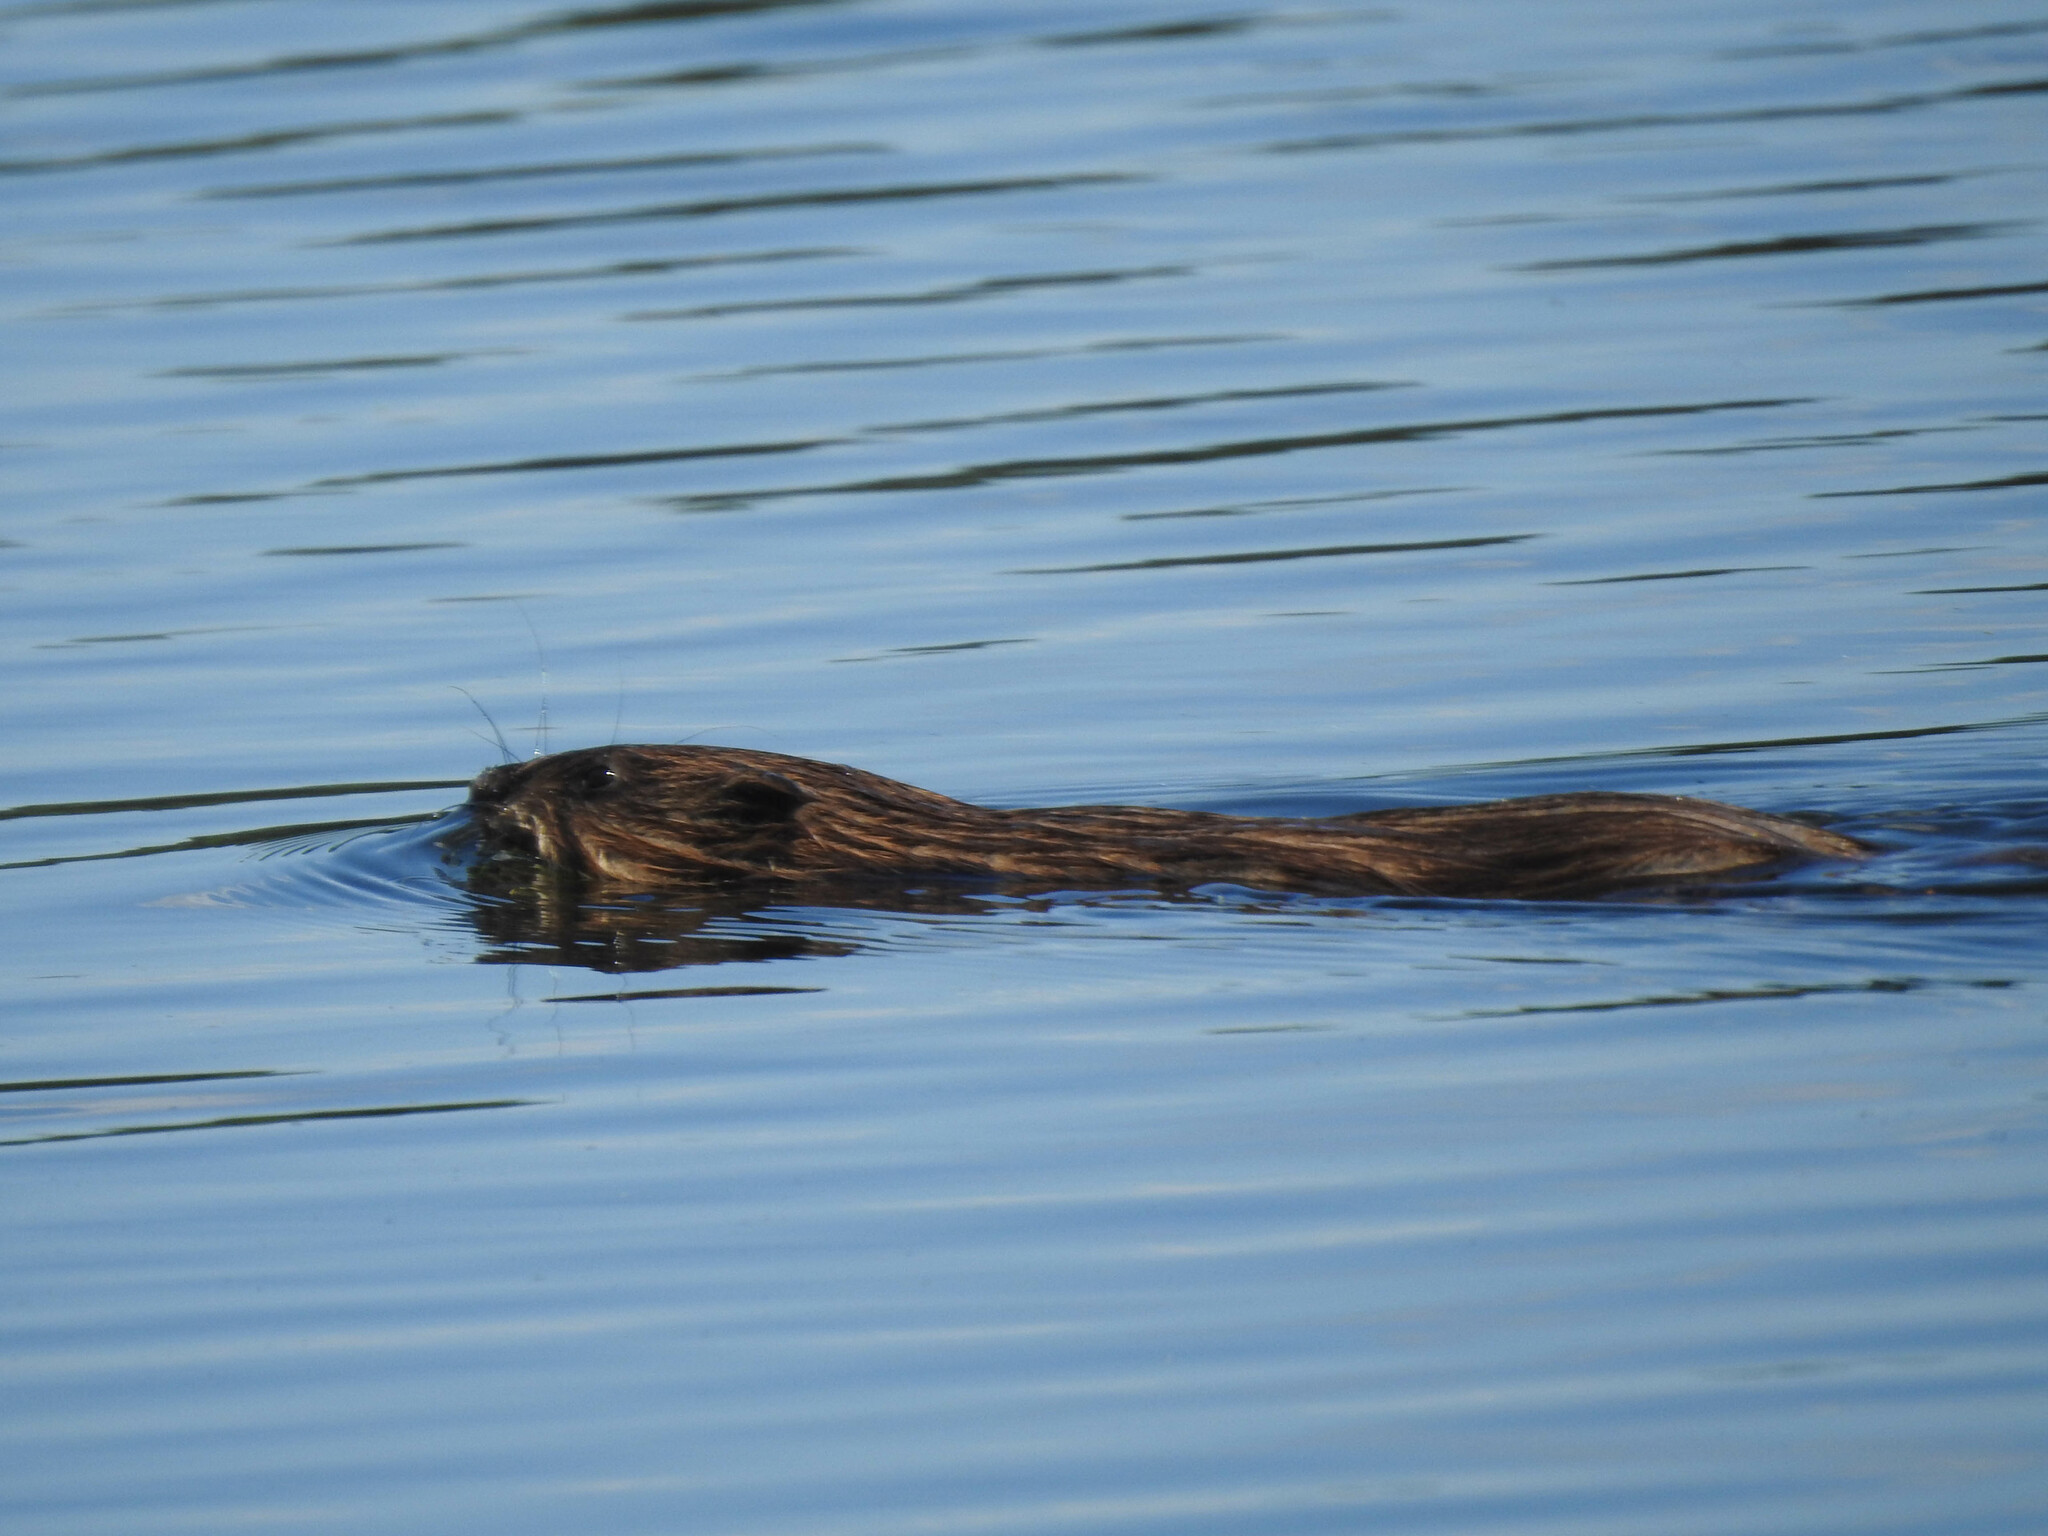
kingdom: Animalia
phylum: Chordata
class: Mammalia
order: Rodentia
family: Cricetidae
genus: Ondatra
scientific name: Ondatra zibethicus
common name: Muskrat
